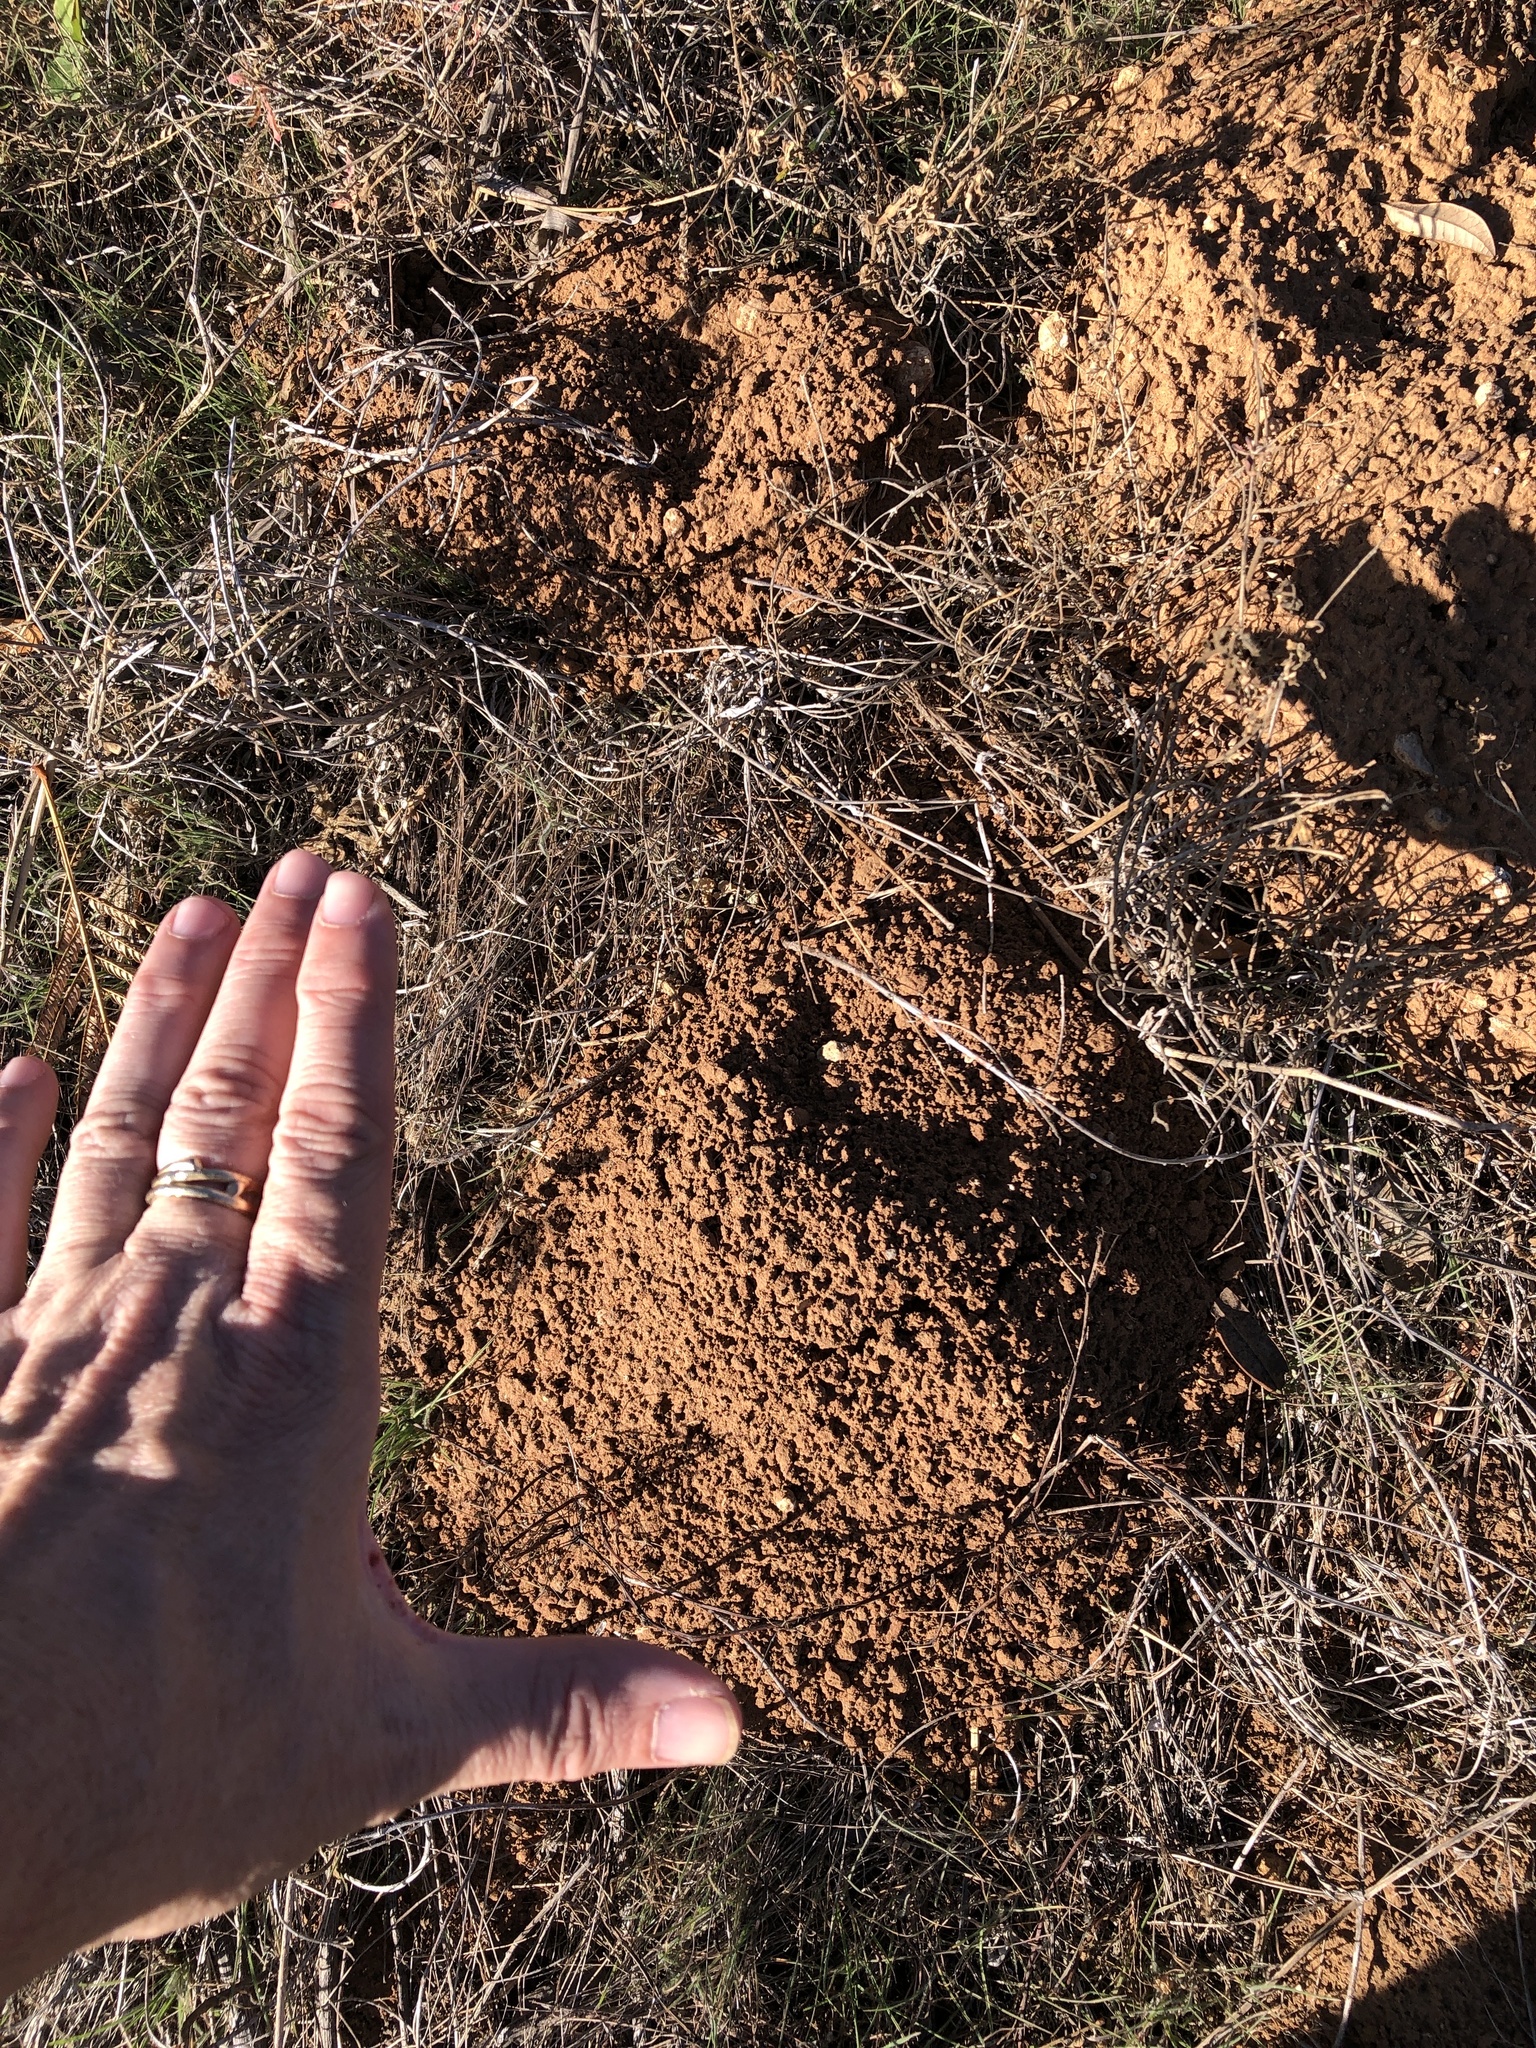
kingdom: Animalia
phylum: Chordata
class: Mammalia
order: Rodentia
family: Geomyidae
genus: Geomys
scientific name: Geomys bursarius
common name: Plains pocket gopher
